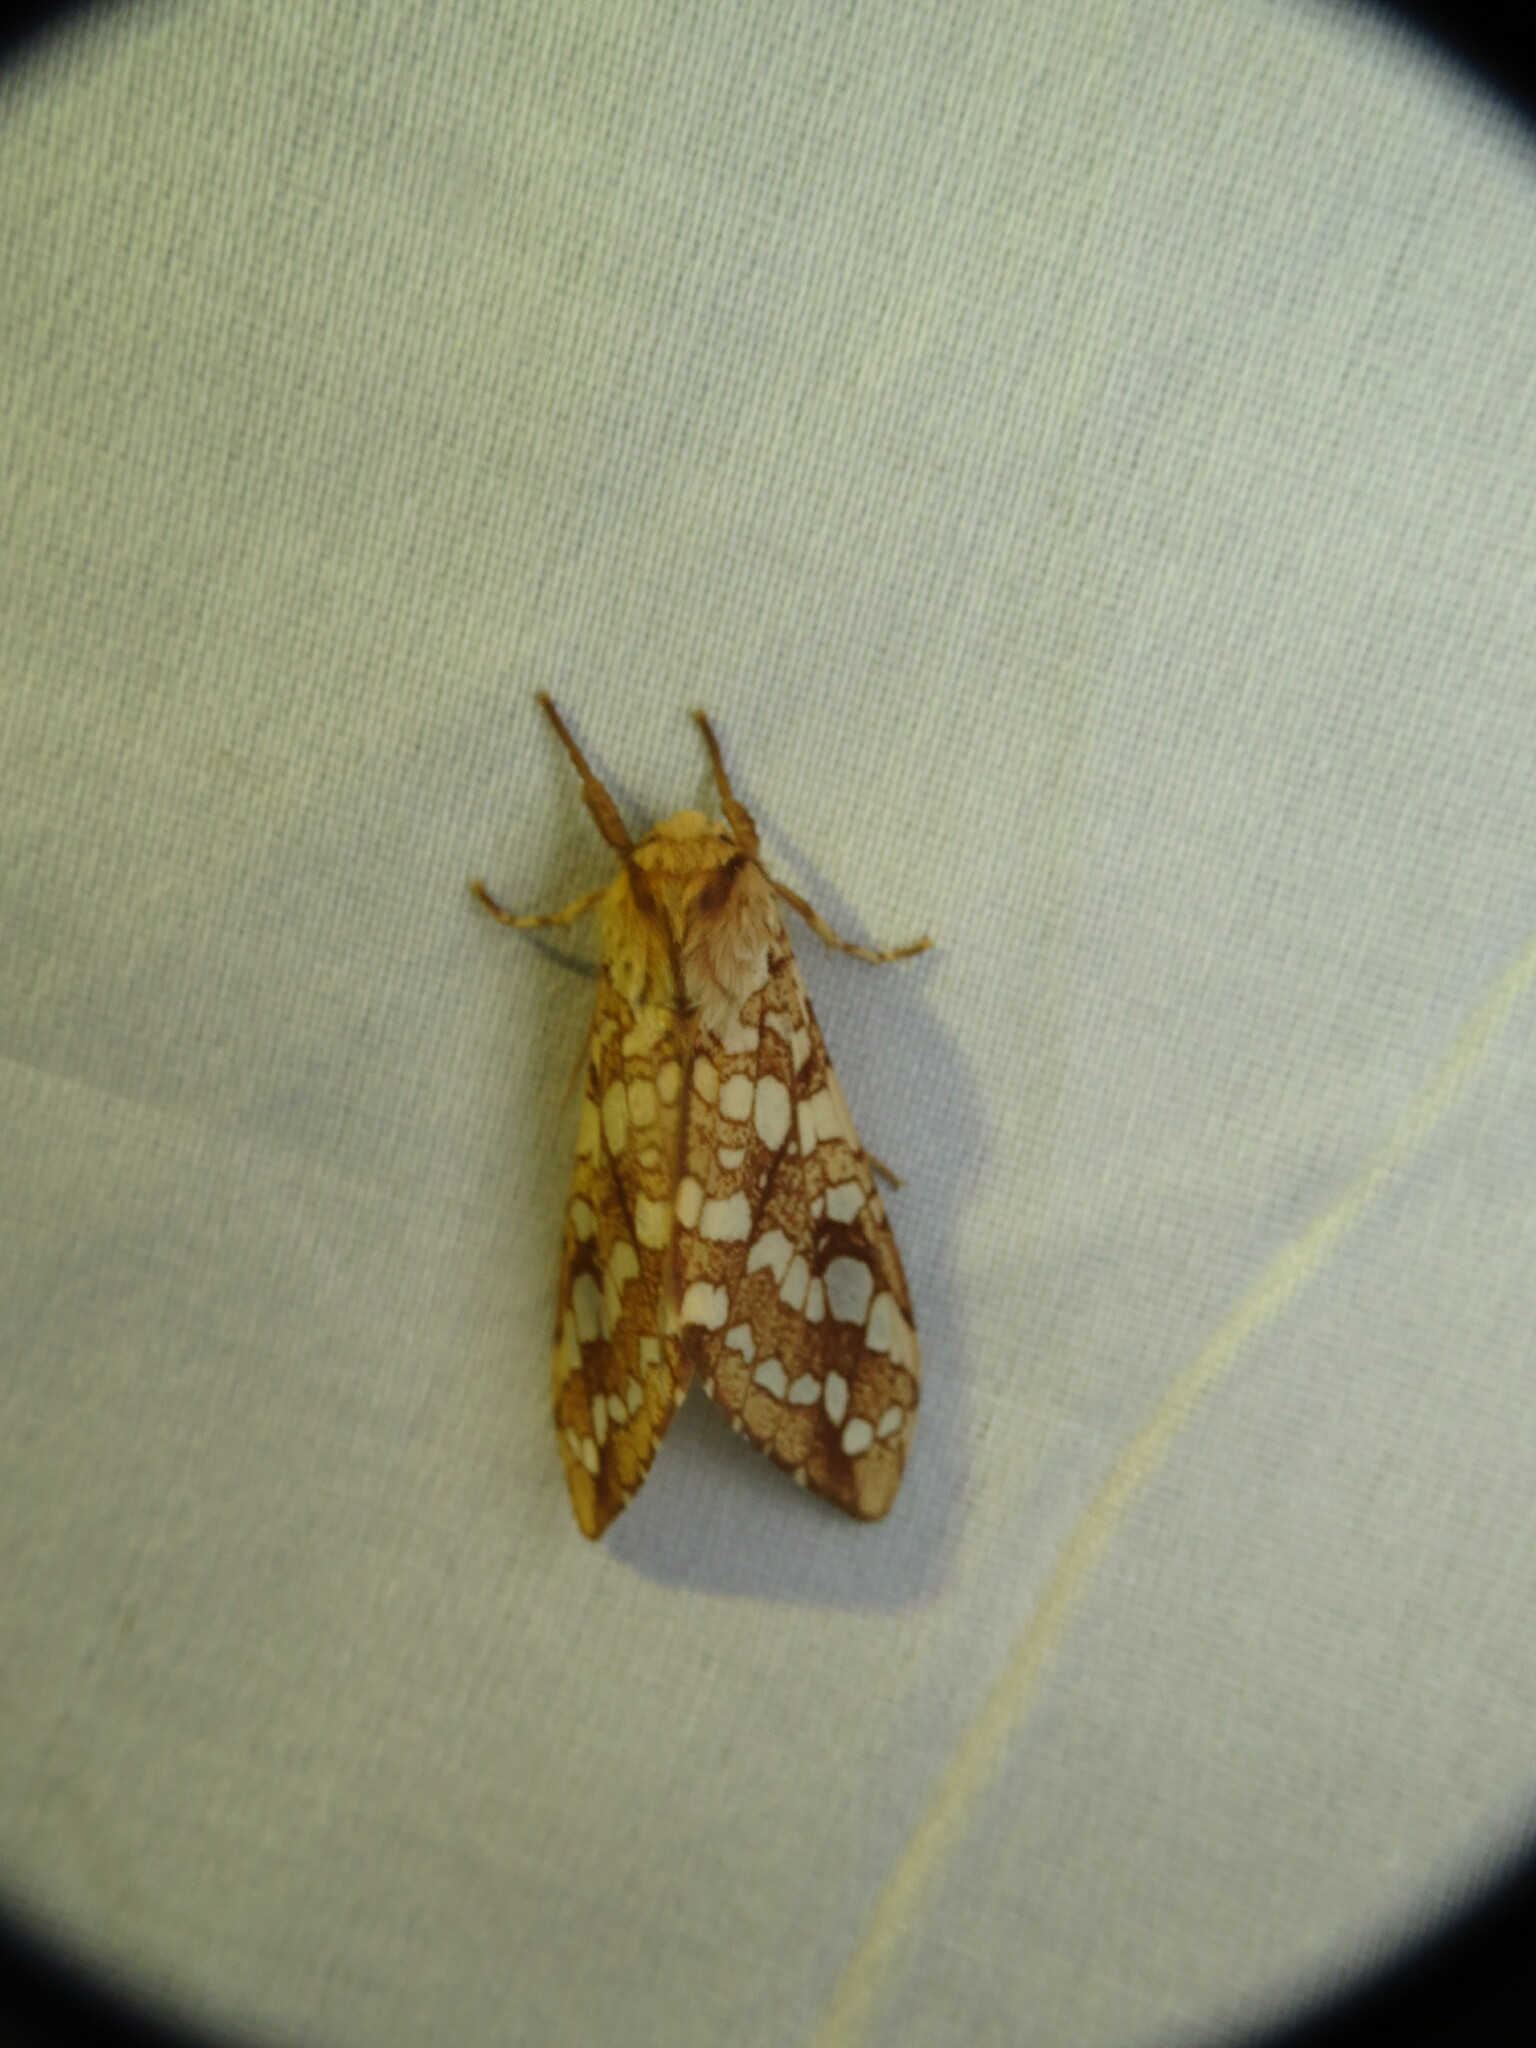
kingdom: Animalia
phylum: Arthropoda
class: Insecta
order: Lepidoptera
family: Erebidae
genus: Lophocampa
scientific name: Lophocampa caryae
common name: Hickory tussock moth
